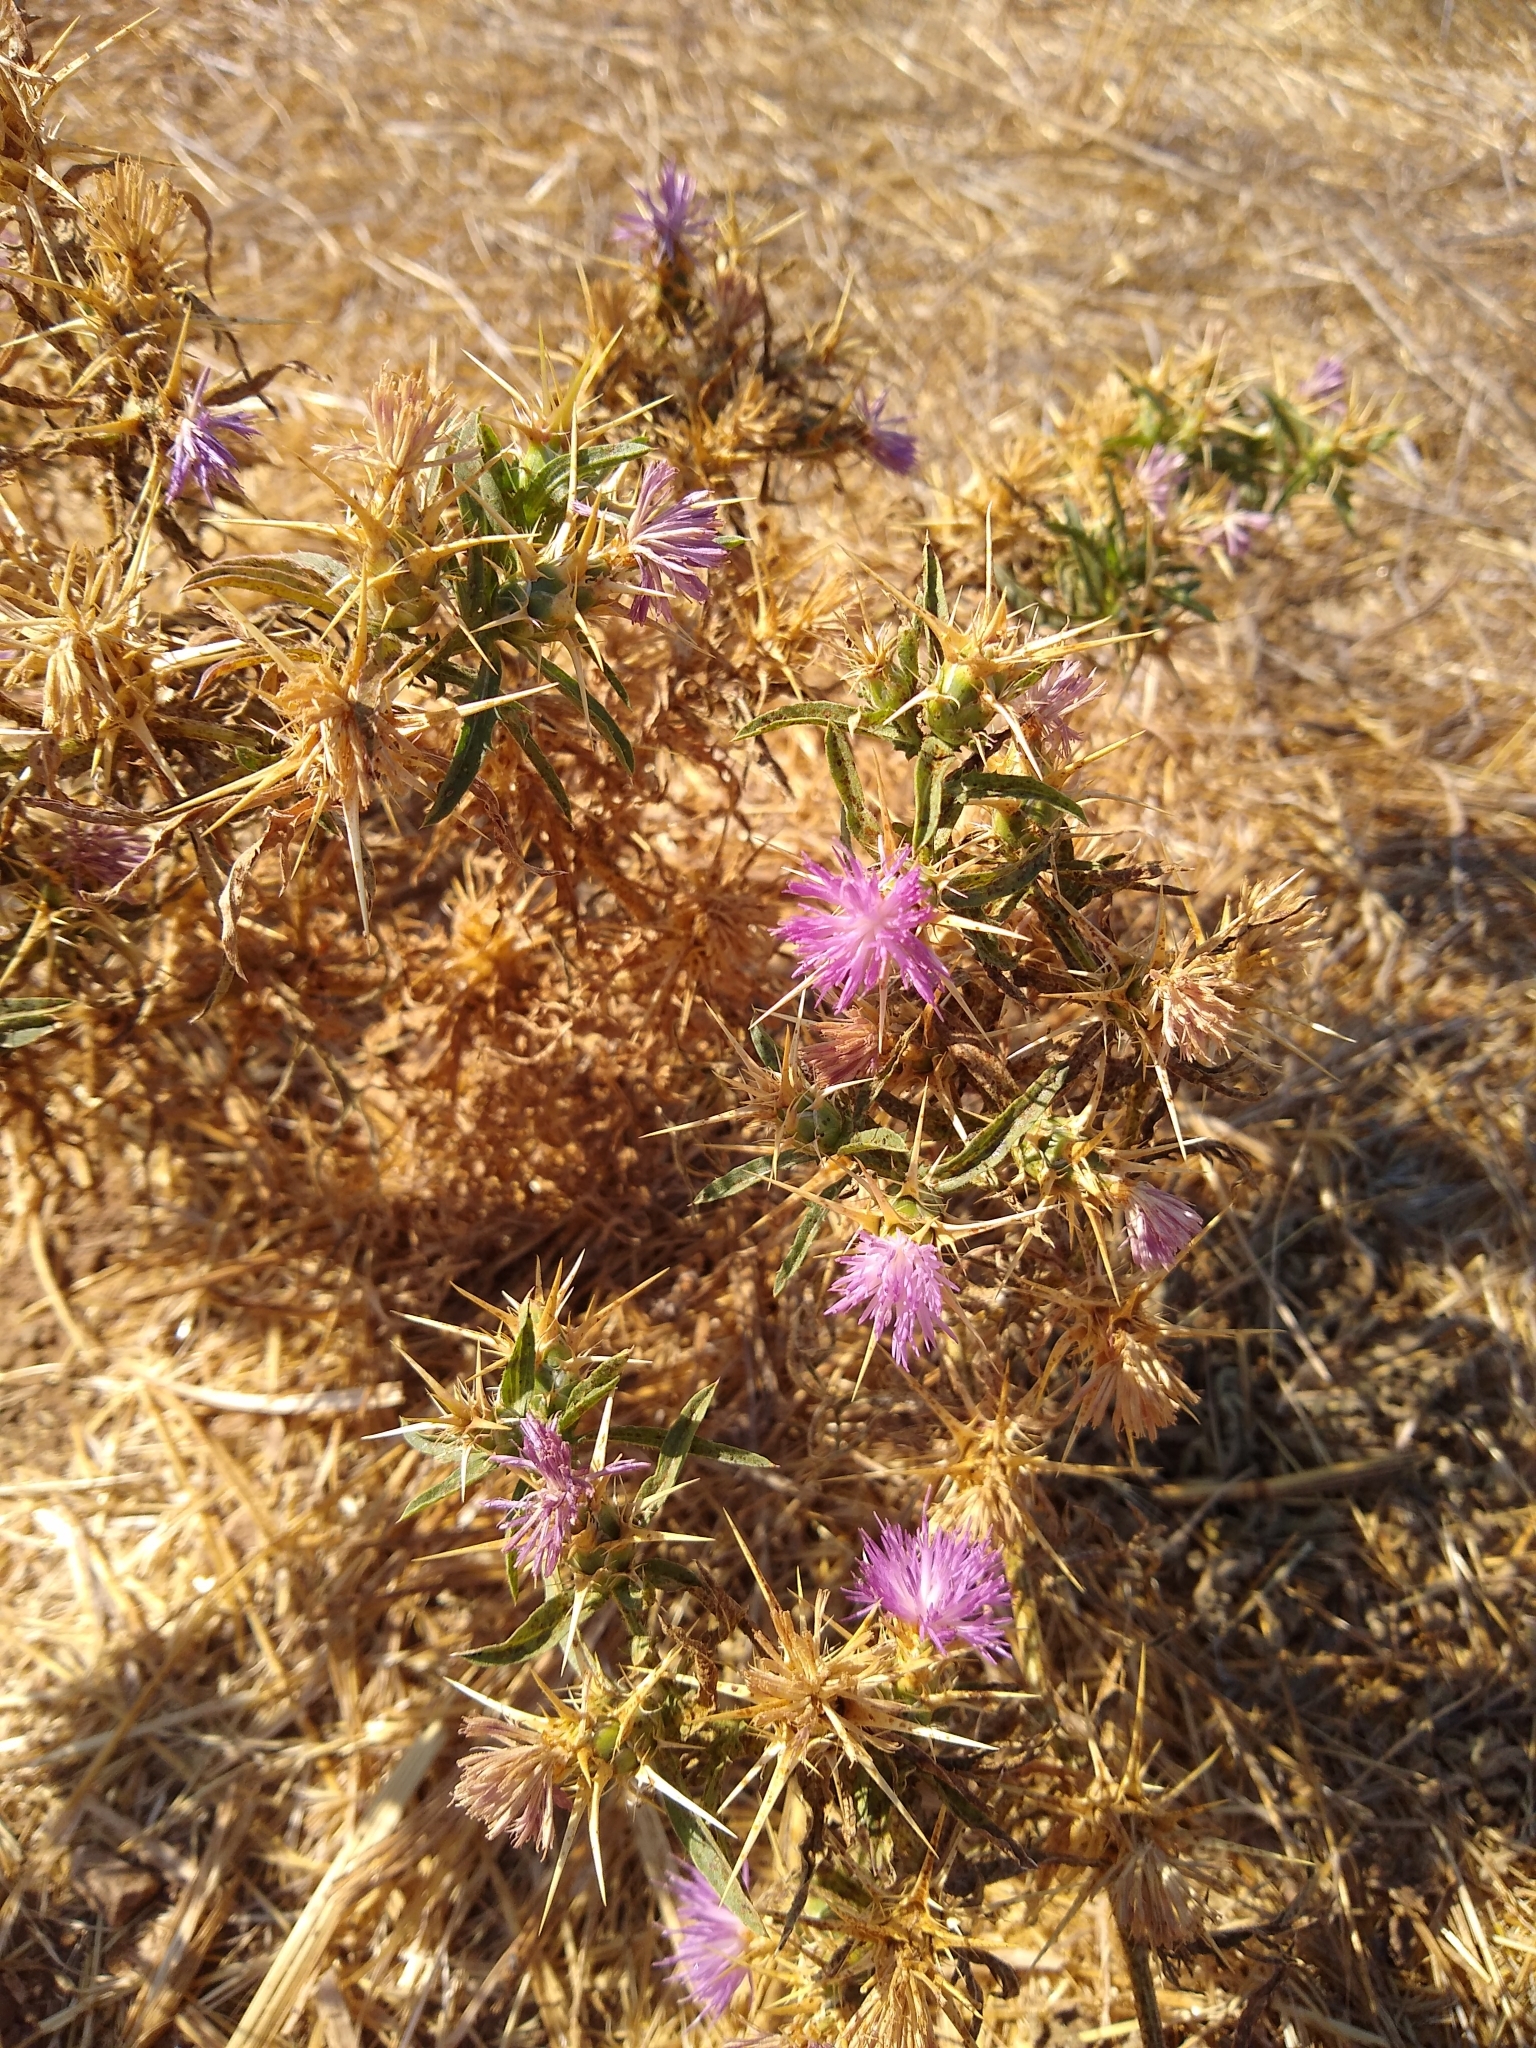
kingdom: Plantae
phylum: Tracheophyta
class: Magnoliopsida
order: Asterales
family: Asteraceae
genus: Centaurea
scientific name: Centaurea calcitrapa
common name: Red star-thistle
